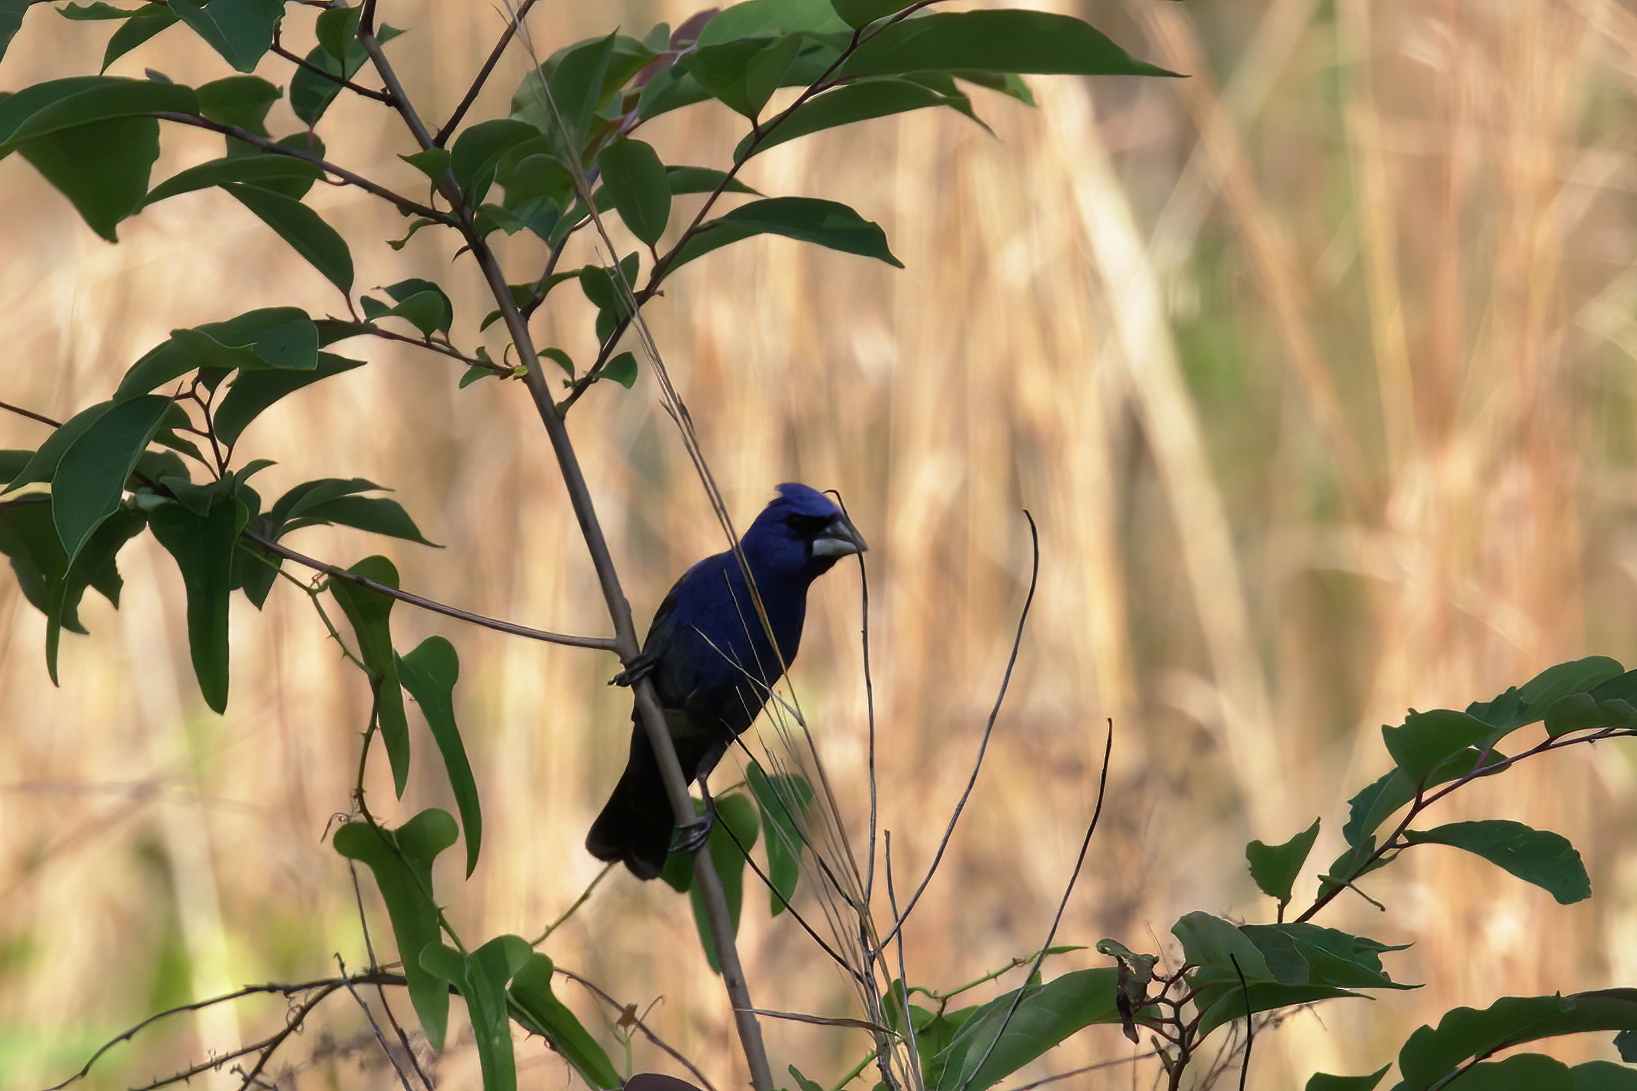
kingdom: Animalia
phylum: Chordata
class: Aves
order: Passeriformes
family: Cardinalidae
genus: Passerina
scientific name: Passerina caerulea
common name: Blue grosbeak
